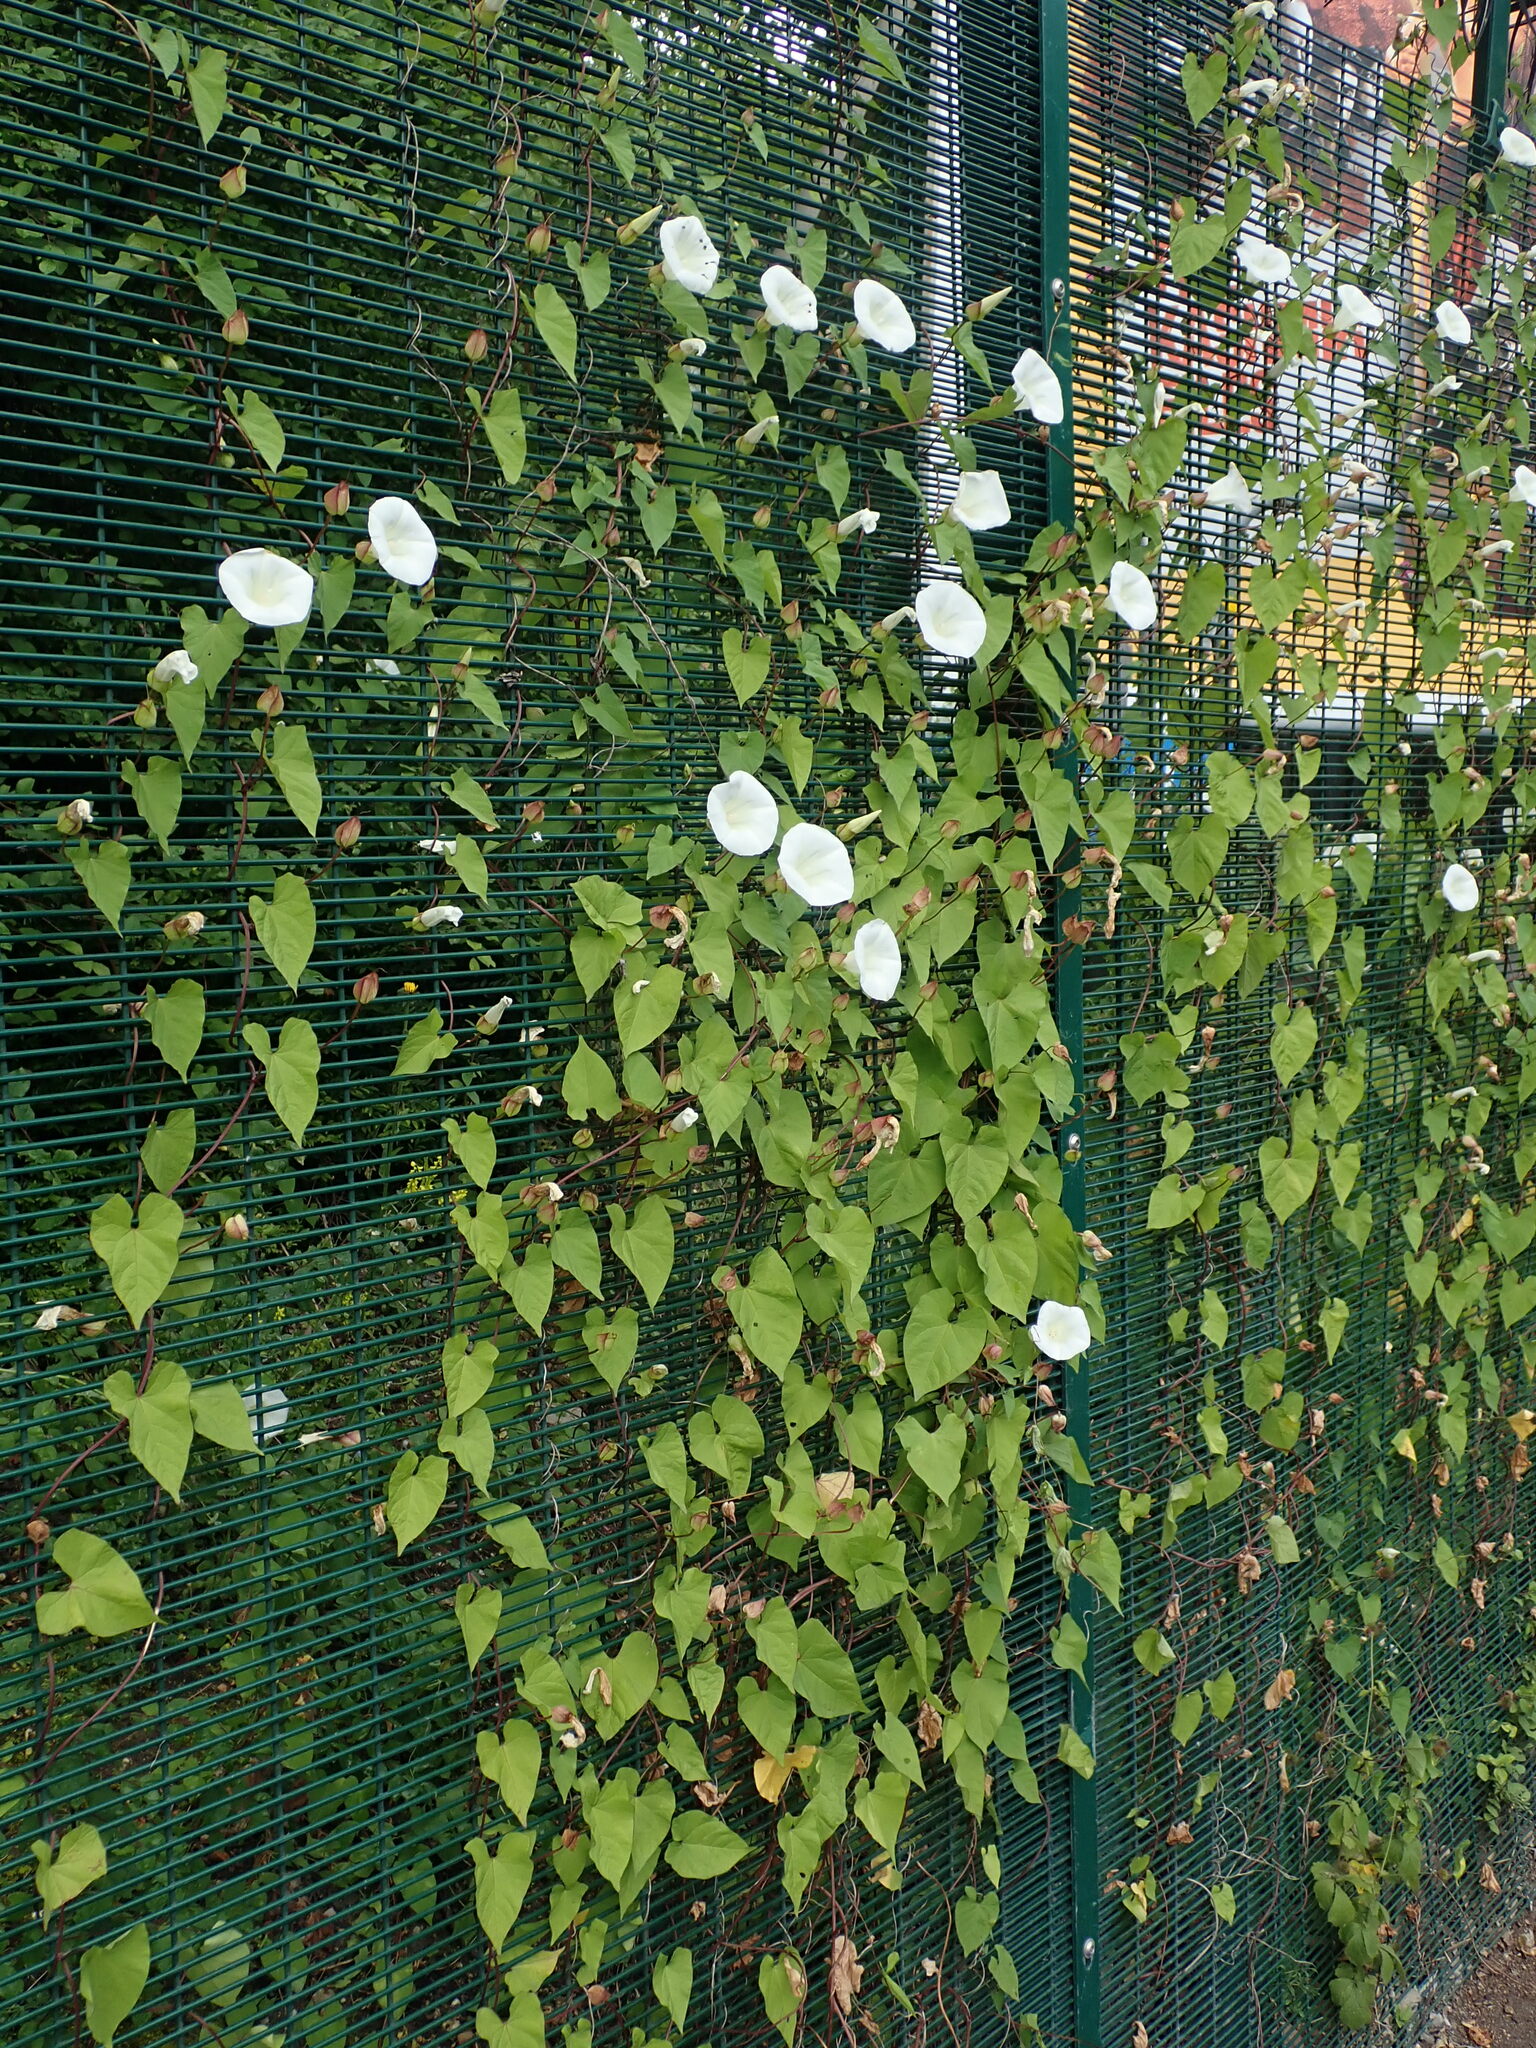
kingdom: Plantae
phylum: Tracheophyta
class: Magnoliopsida
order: Solanales
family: Convolvulaceae
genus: Calystegia
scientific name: Calystegia lucana
